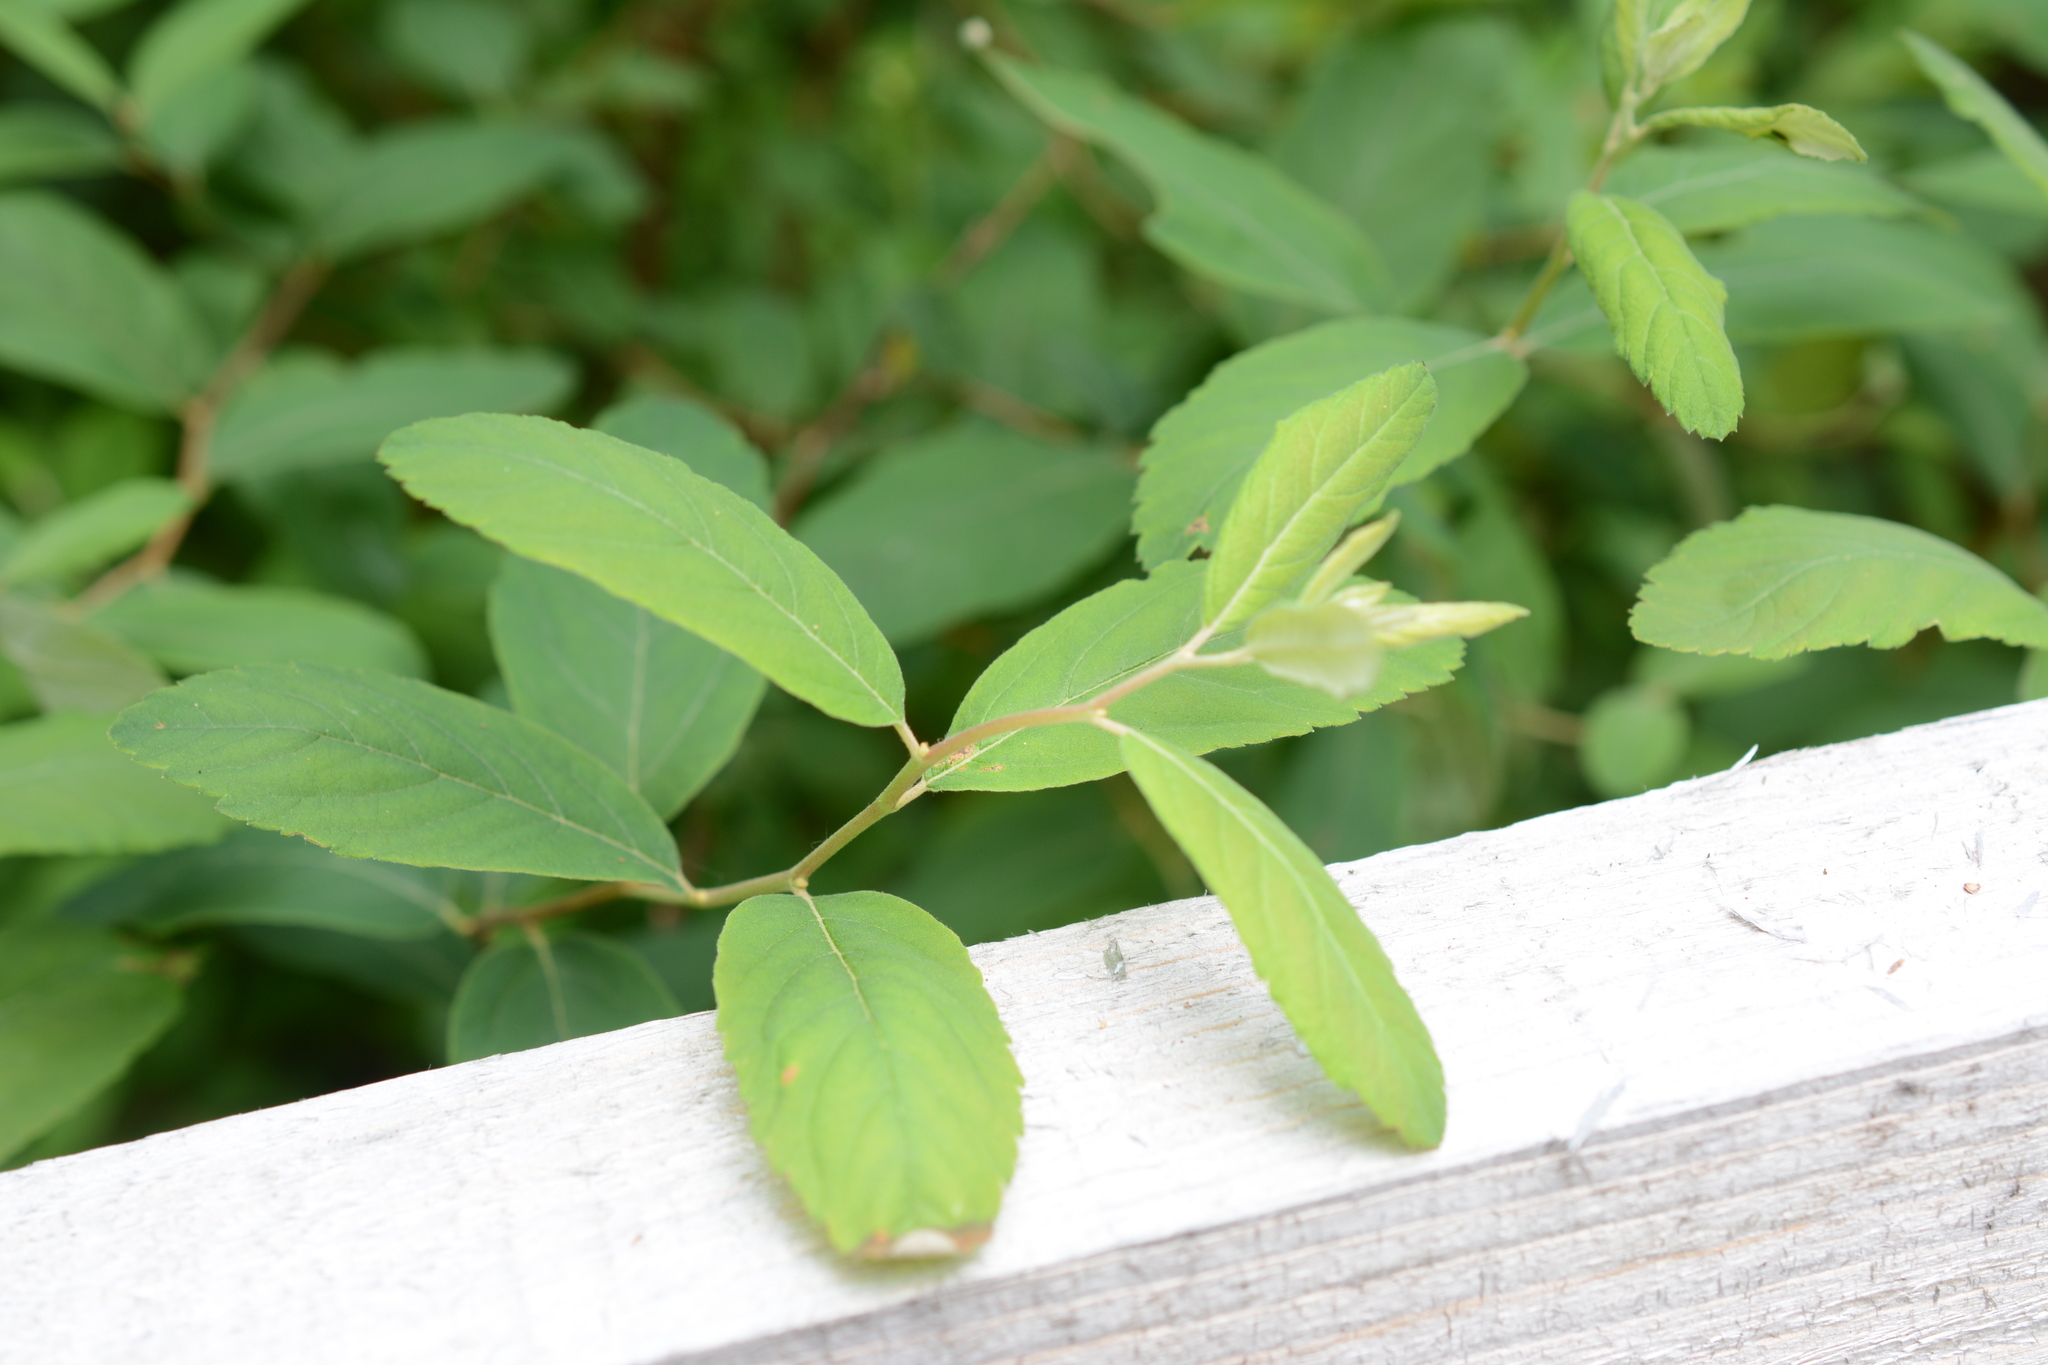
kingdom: Plantae
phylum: Tracheophyta
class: Magnoliopsida
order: Rosales
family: Rosaceae
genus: Spiraea
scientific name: Spiraea douglasii
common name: Steeplebush
